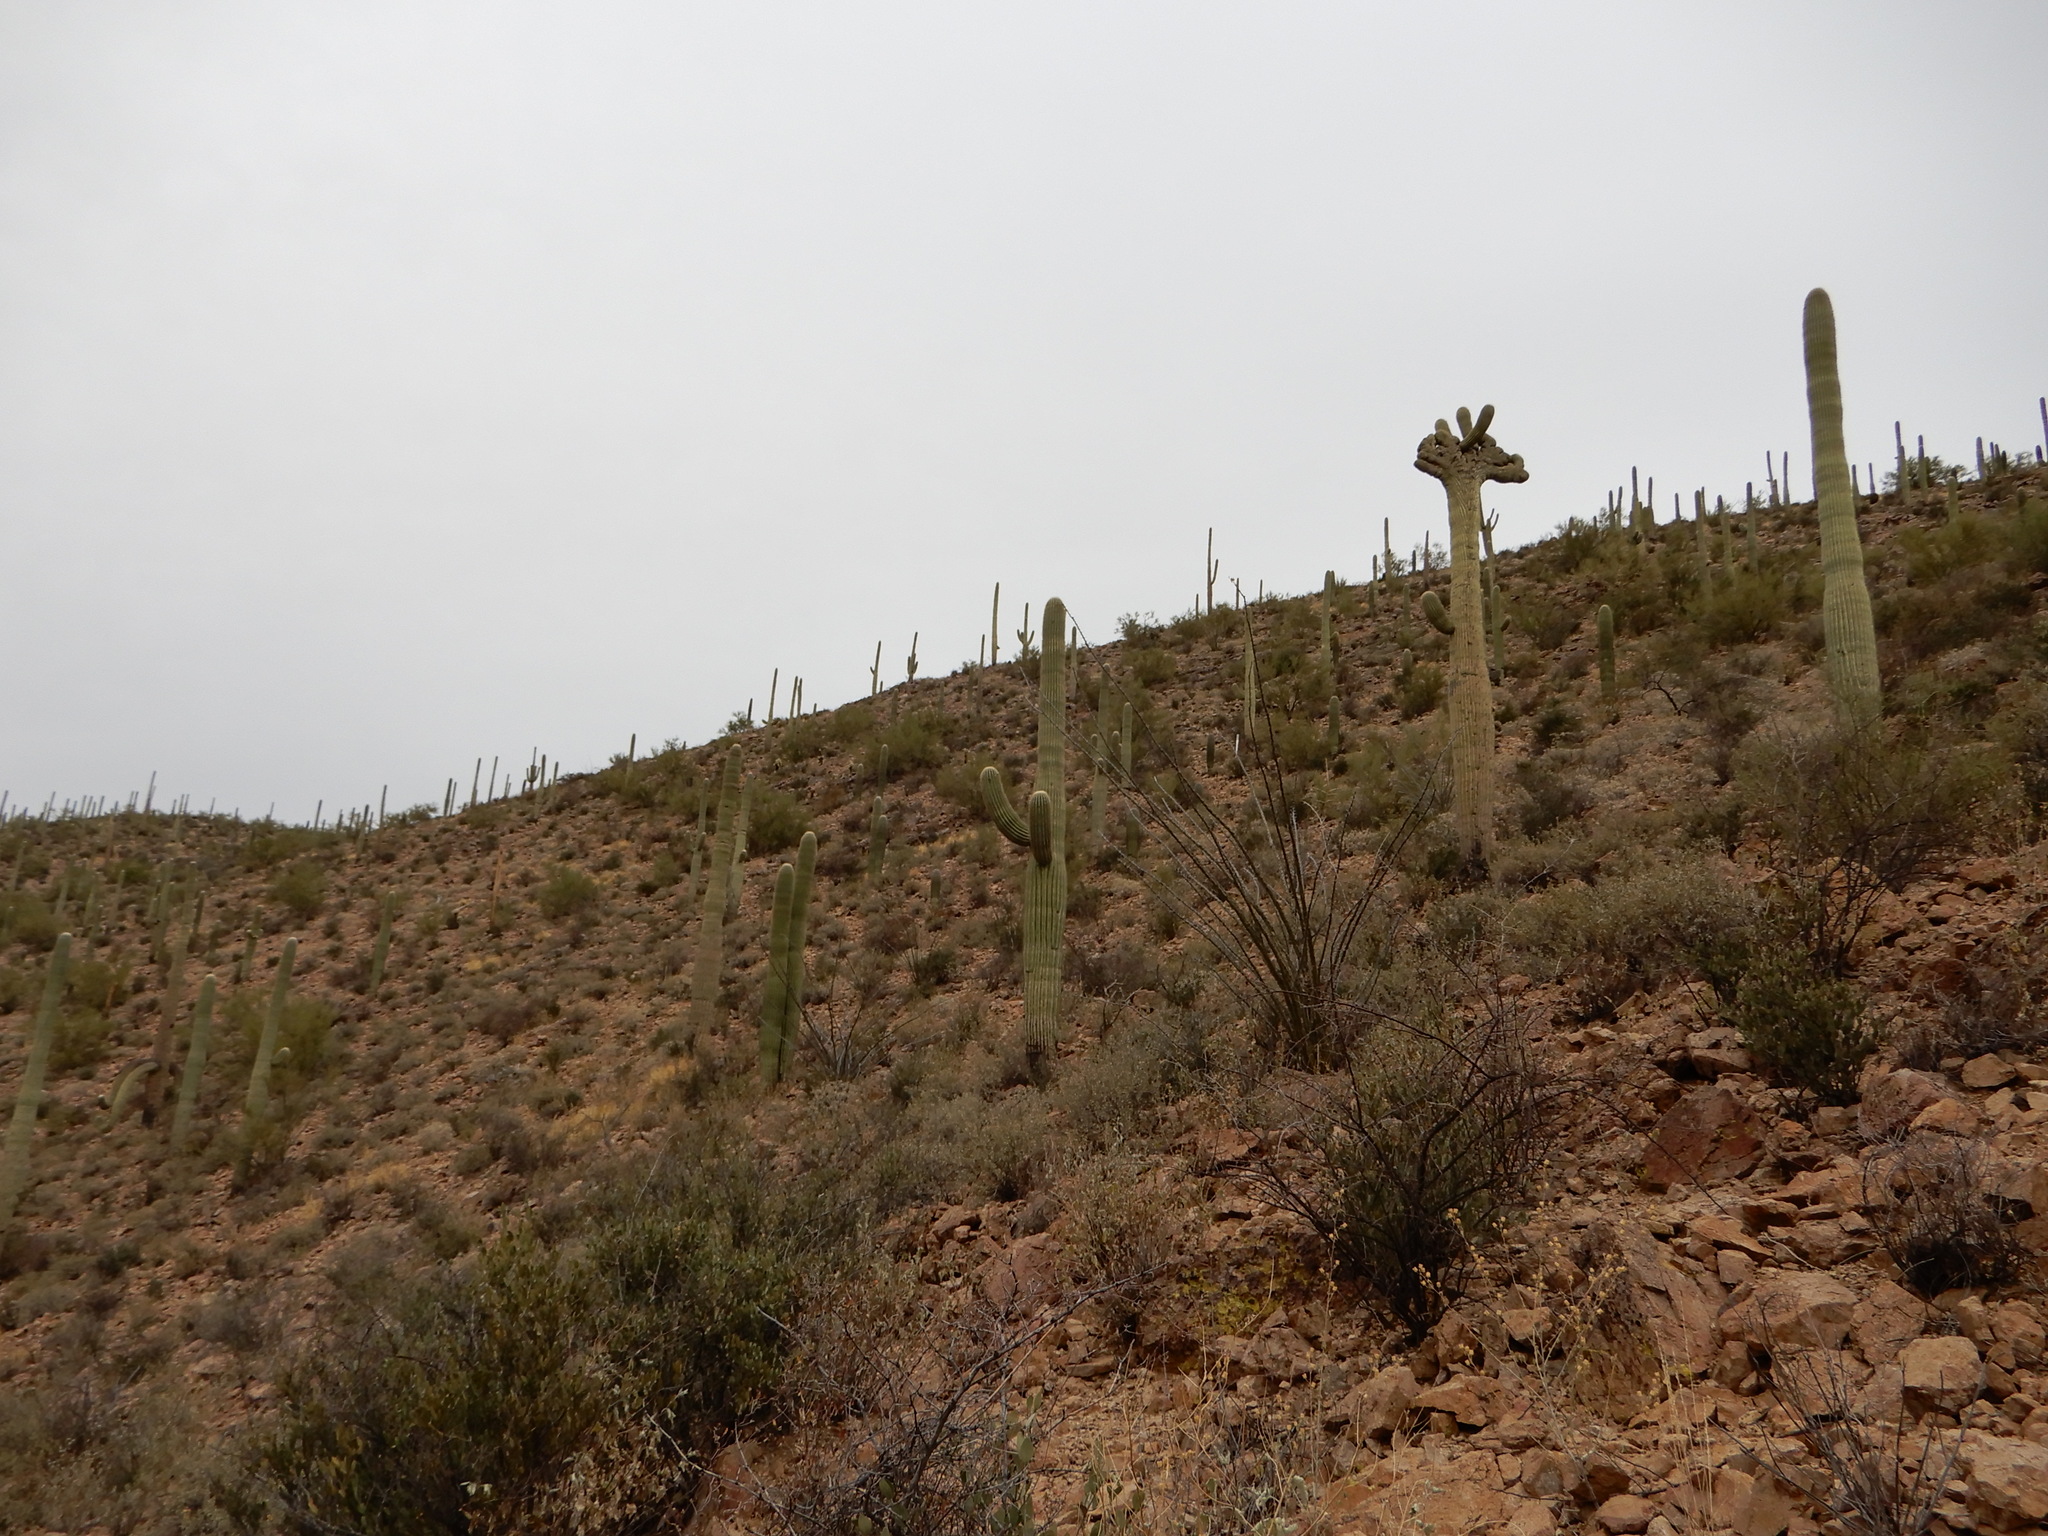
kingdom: Plantae
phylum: Tracheophyta
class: Magnoliopsida
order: Caryophyllales
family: Cactaceae
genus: Carnegiea
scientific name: Carnegiea gigantea
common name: Saguaro
